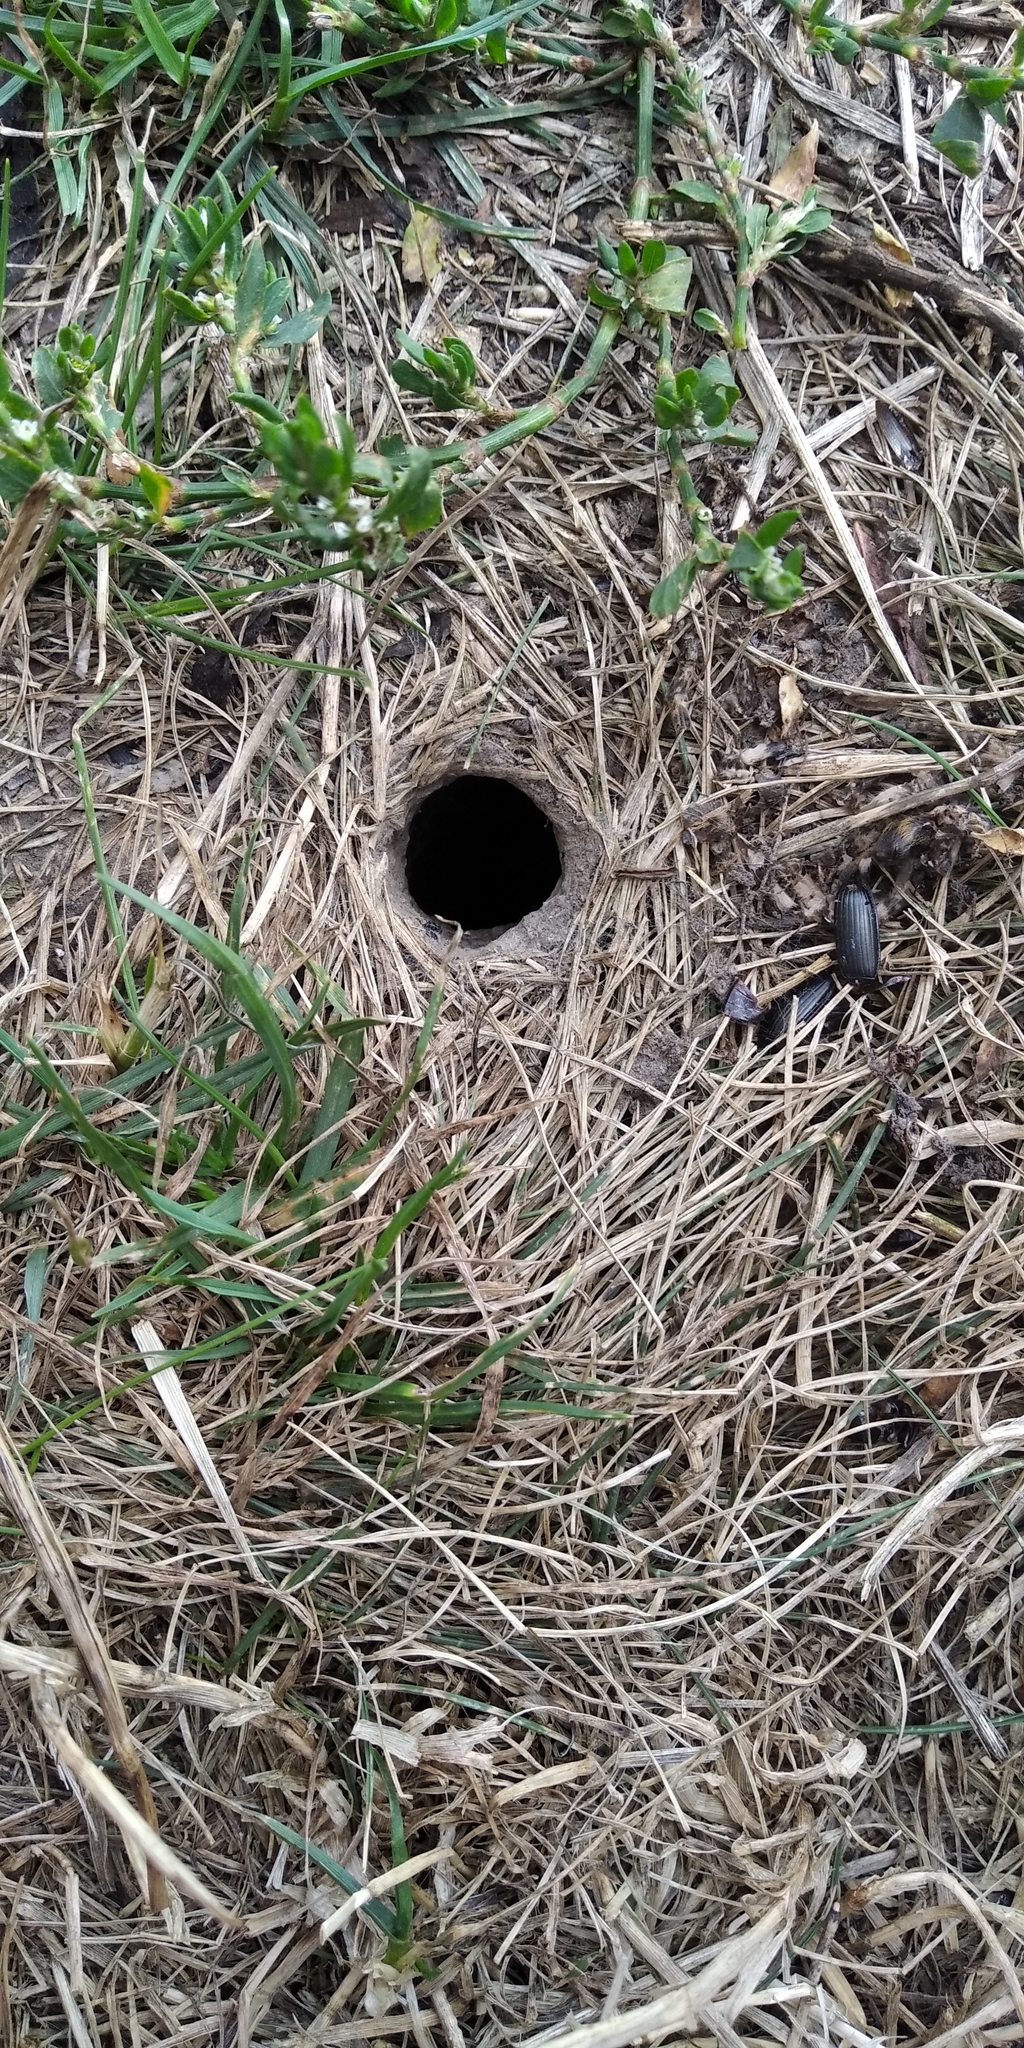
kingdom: Animalia
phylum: Arthropoda
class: Arachnida
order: Araneae
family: Lycosidae
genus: Lycosa
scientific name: Lycosa singoriensis
